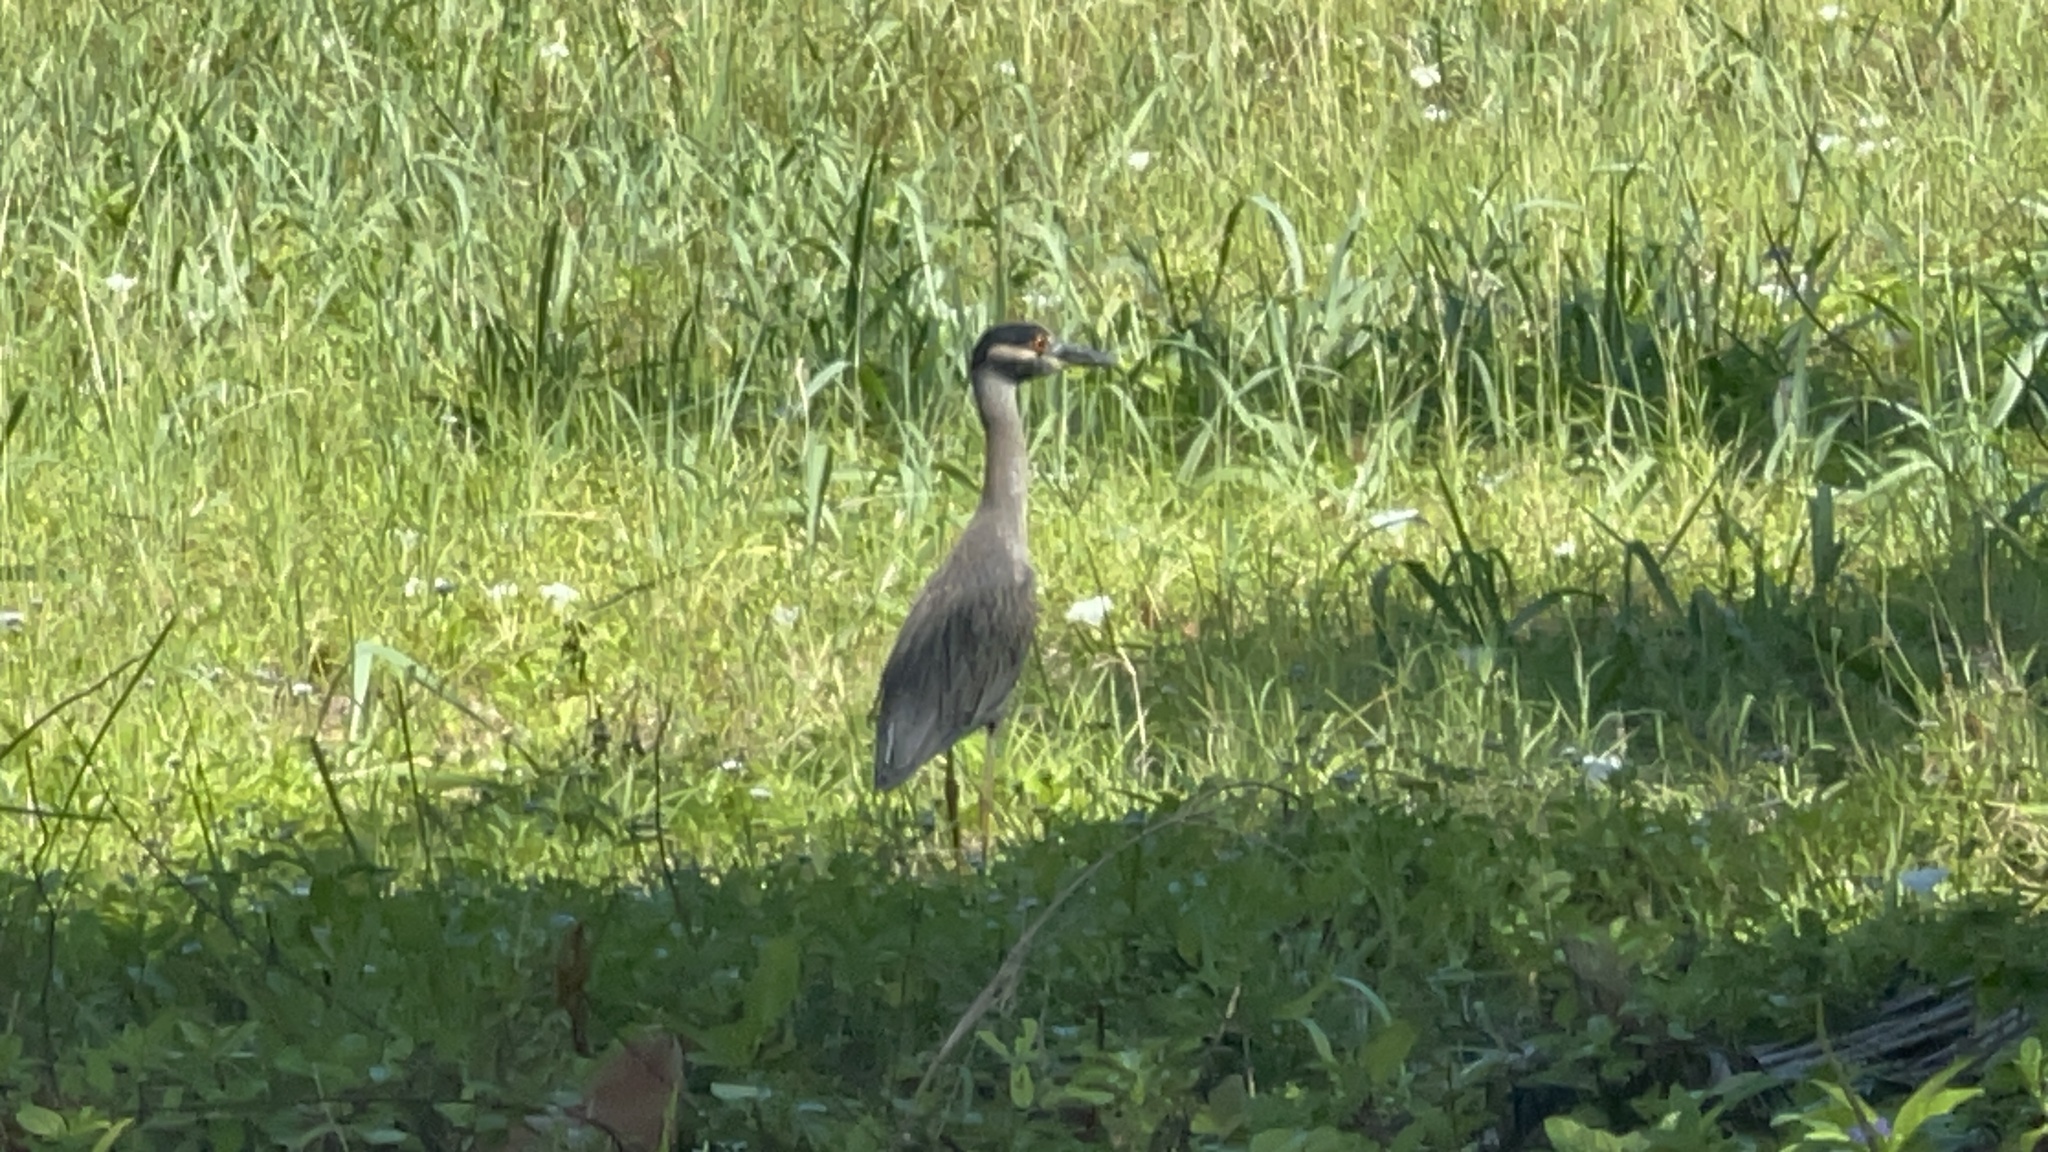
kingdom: Animalia
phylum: Chordata
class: Aves
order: Pelecaniformes
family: Ardeidae
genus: Nyctanassa
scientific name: Nyctanassa violacea
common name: Yellow-crowned night heron
